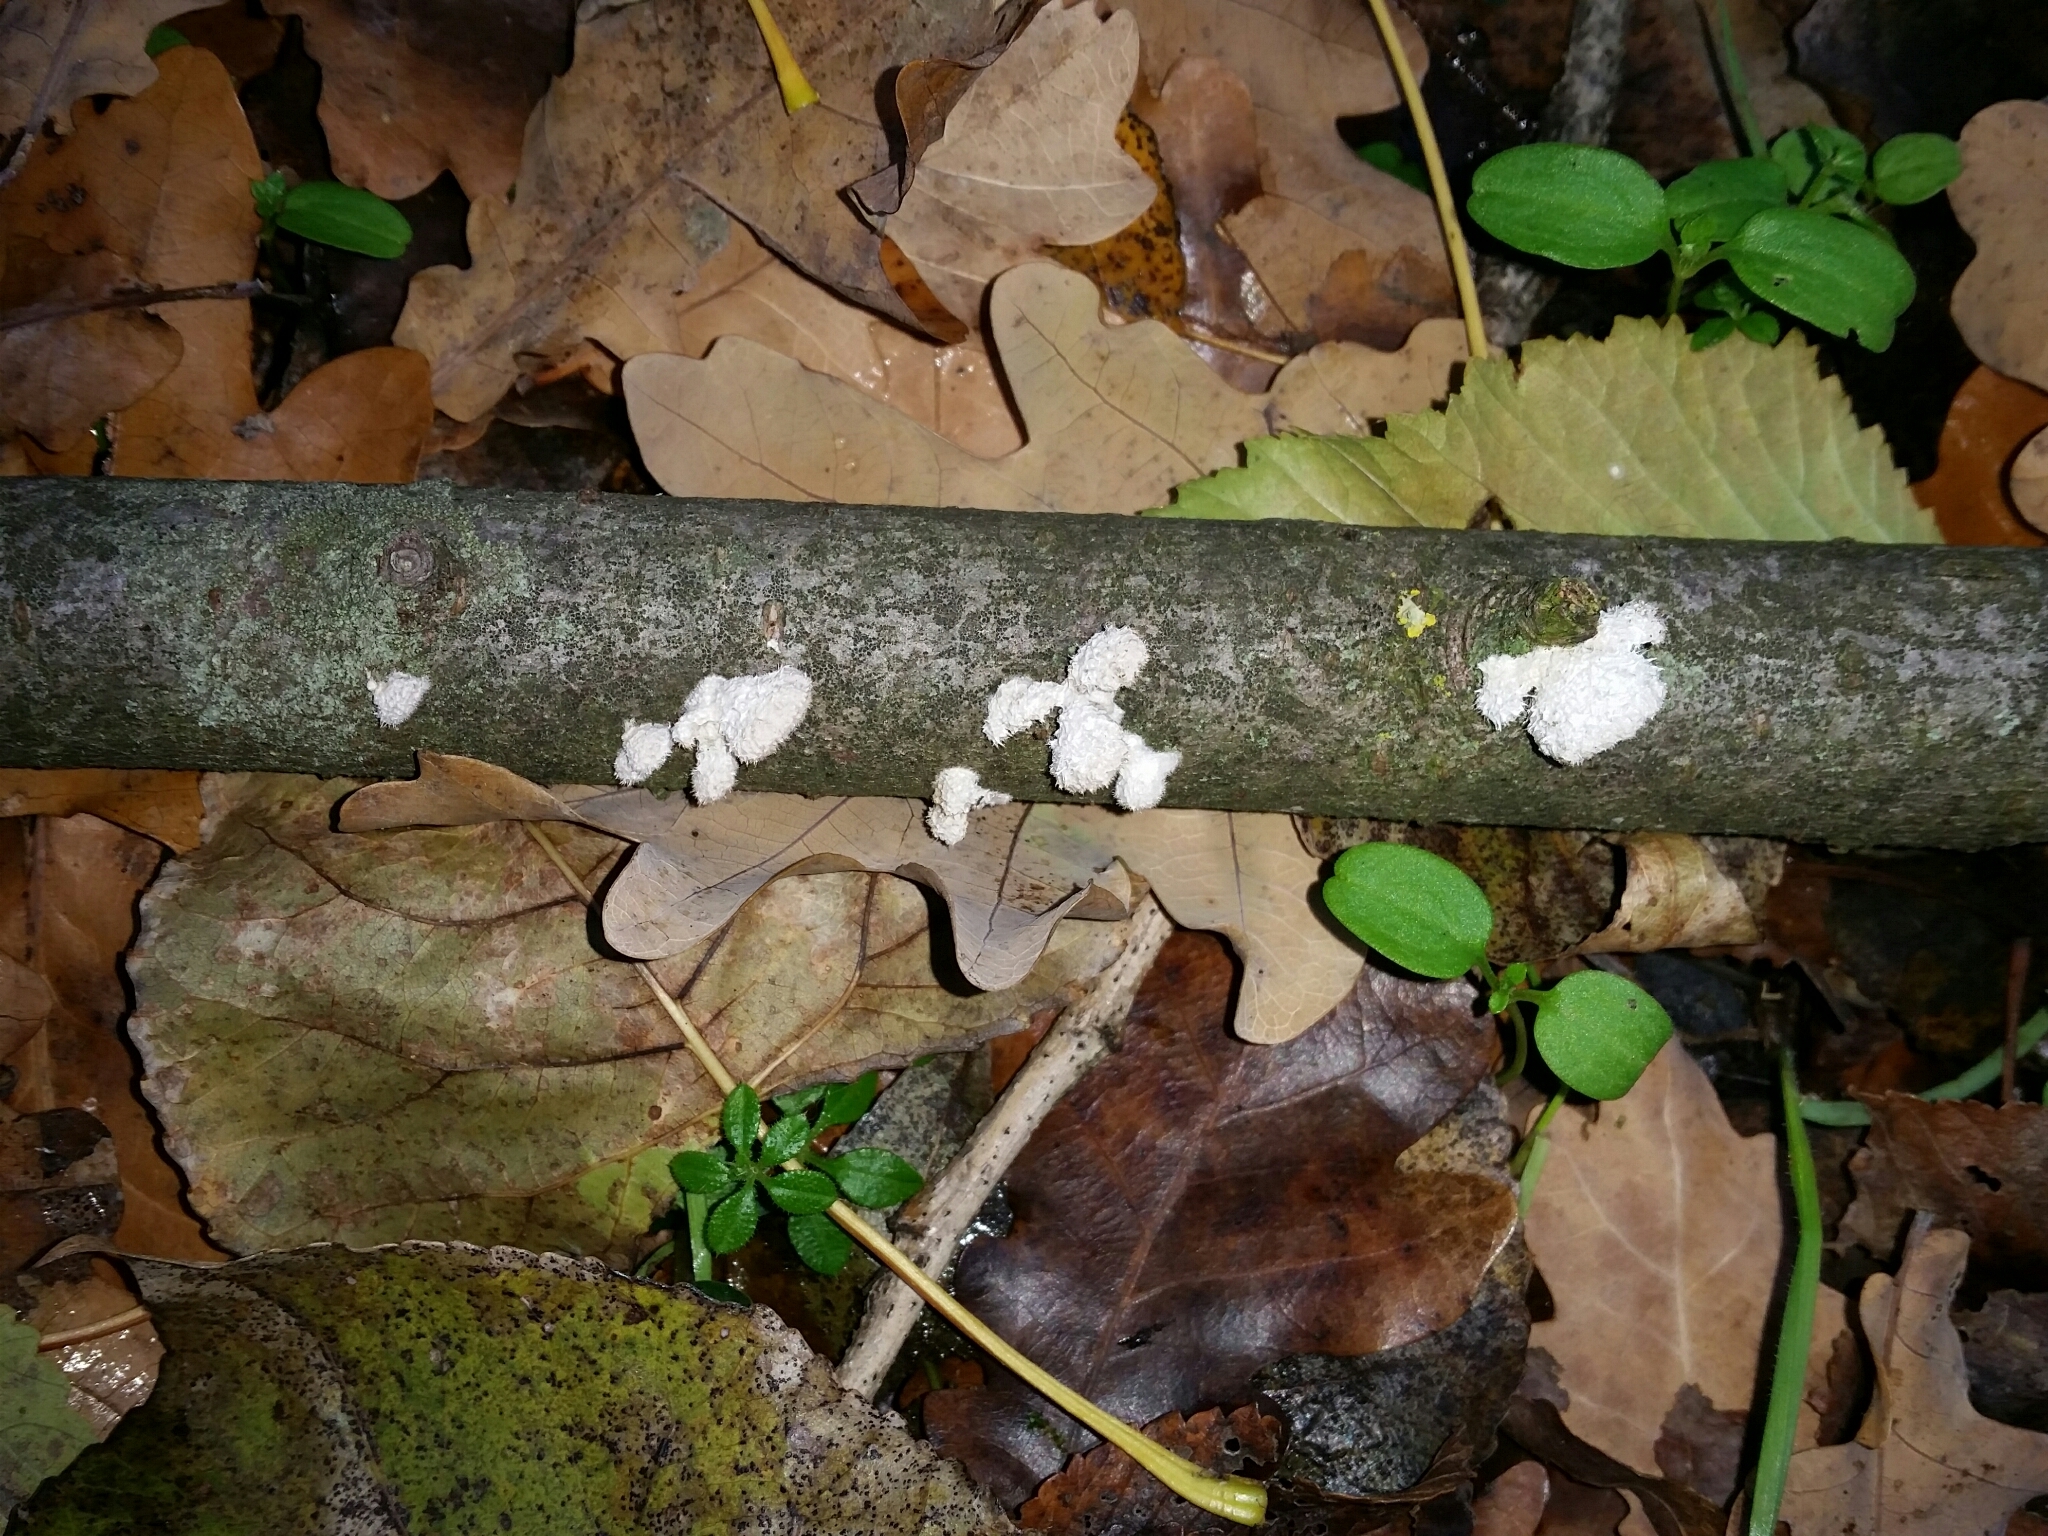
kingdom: Fungi
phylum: Basidiomycota
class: Agaricomycetes
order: Agaricales
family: Schizophyllaceae
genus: Schizophyllum
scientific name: Schizophyllum commune
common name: Common porecrust
